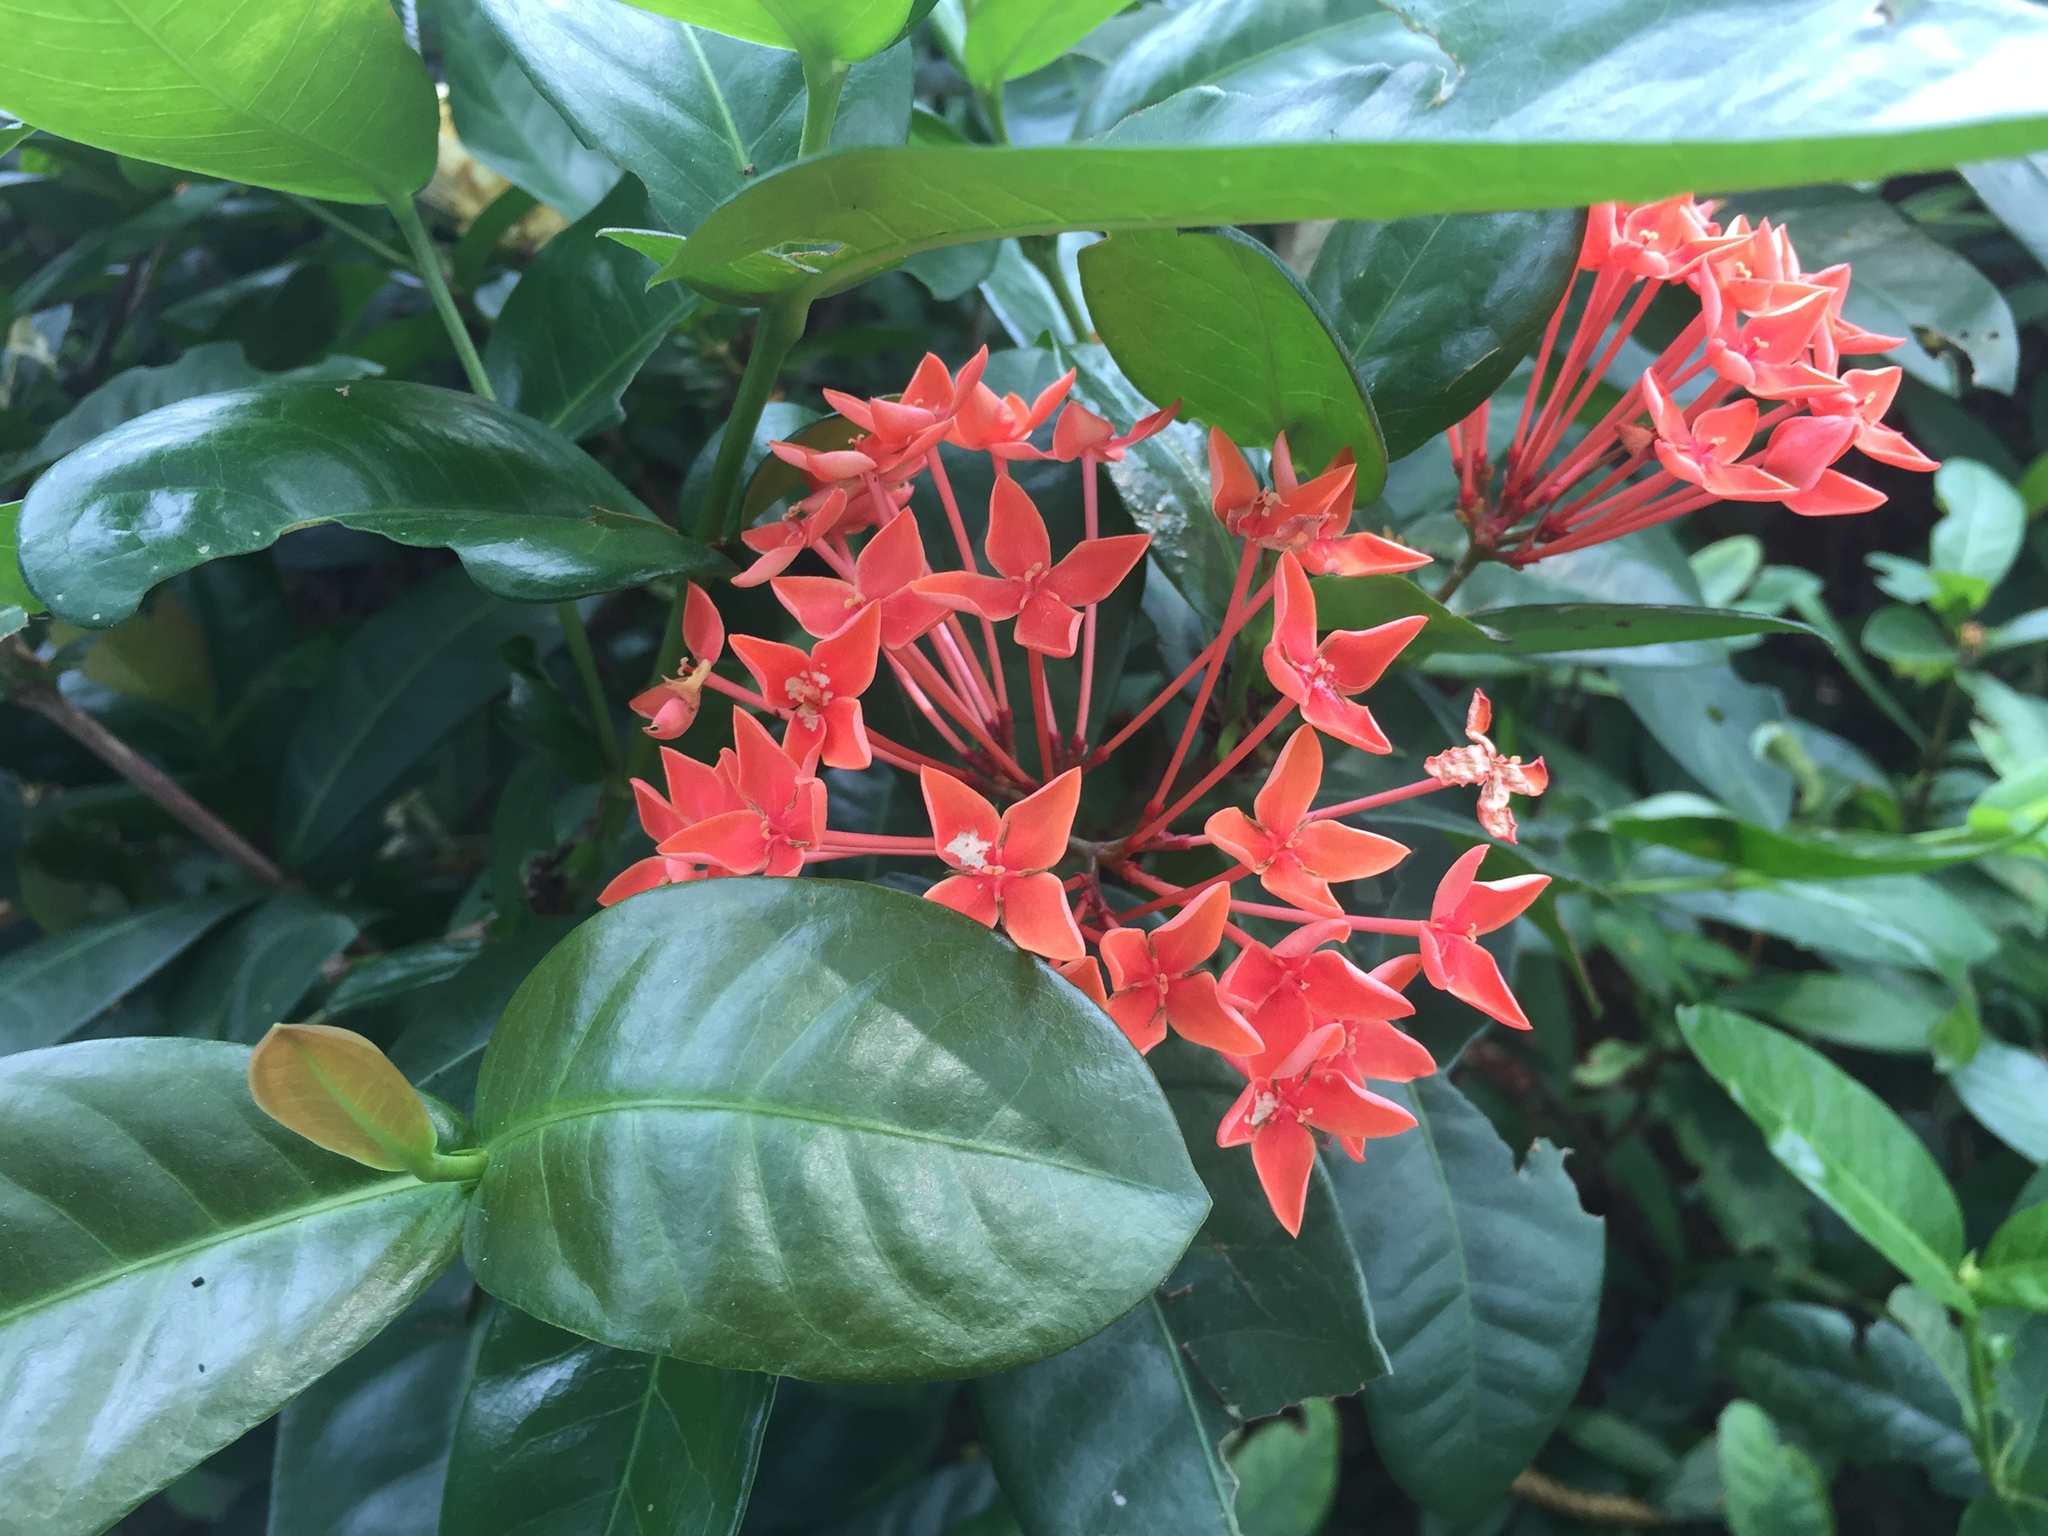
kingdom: Plantae
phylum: Tracheophyta
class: Magnoliopsida
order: Gentianales
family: Rubiaceae
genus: Ixora
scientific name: Ixora coccinea
